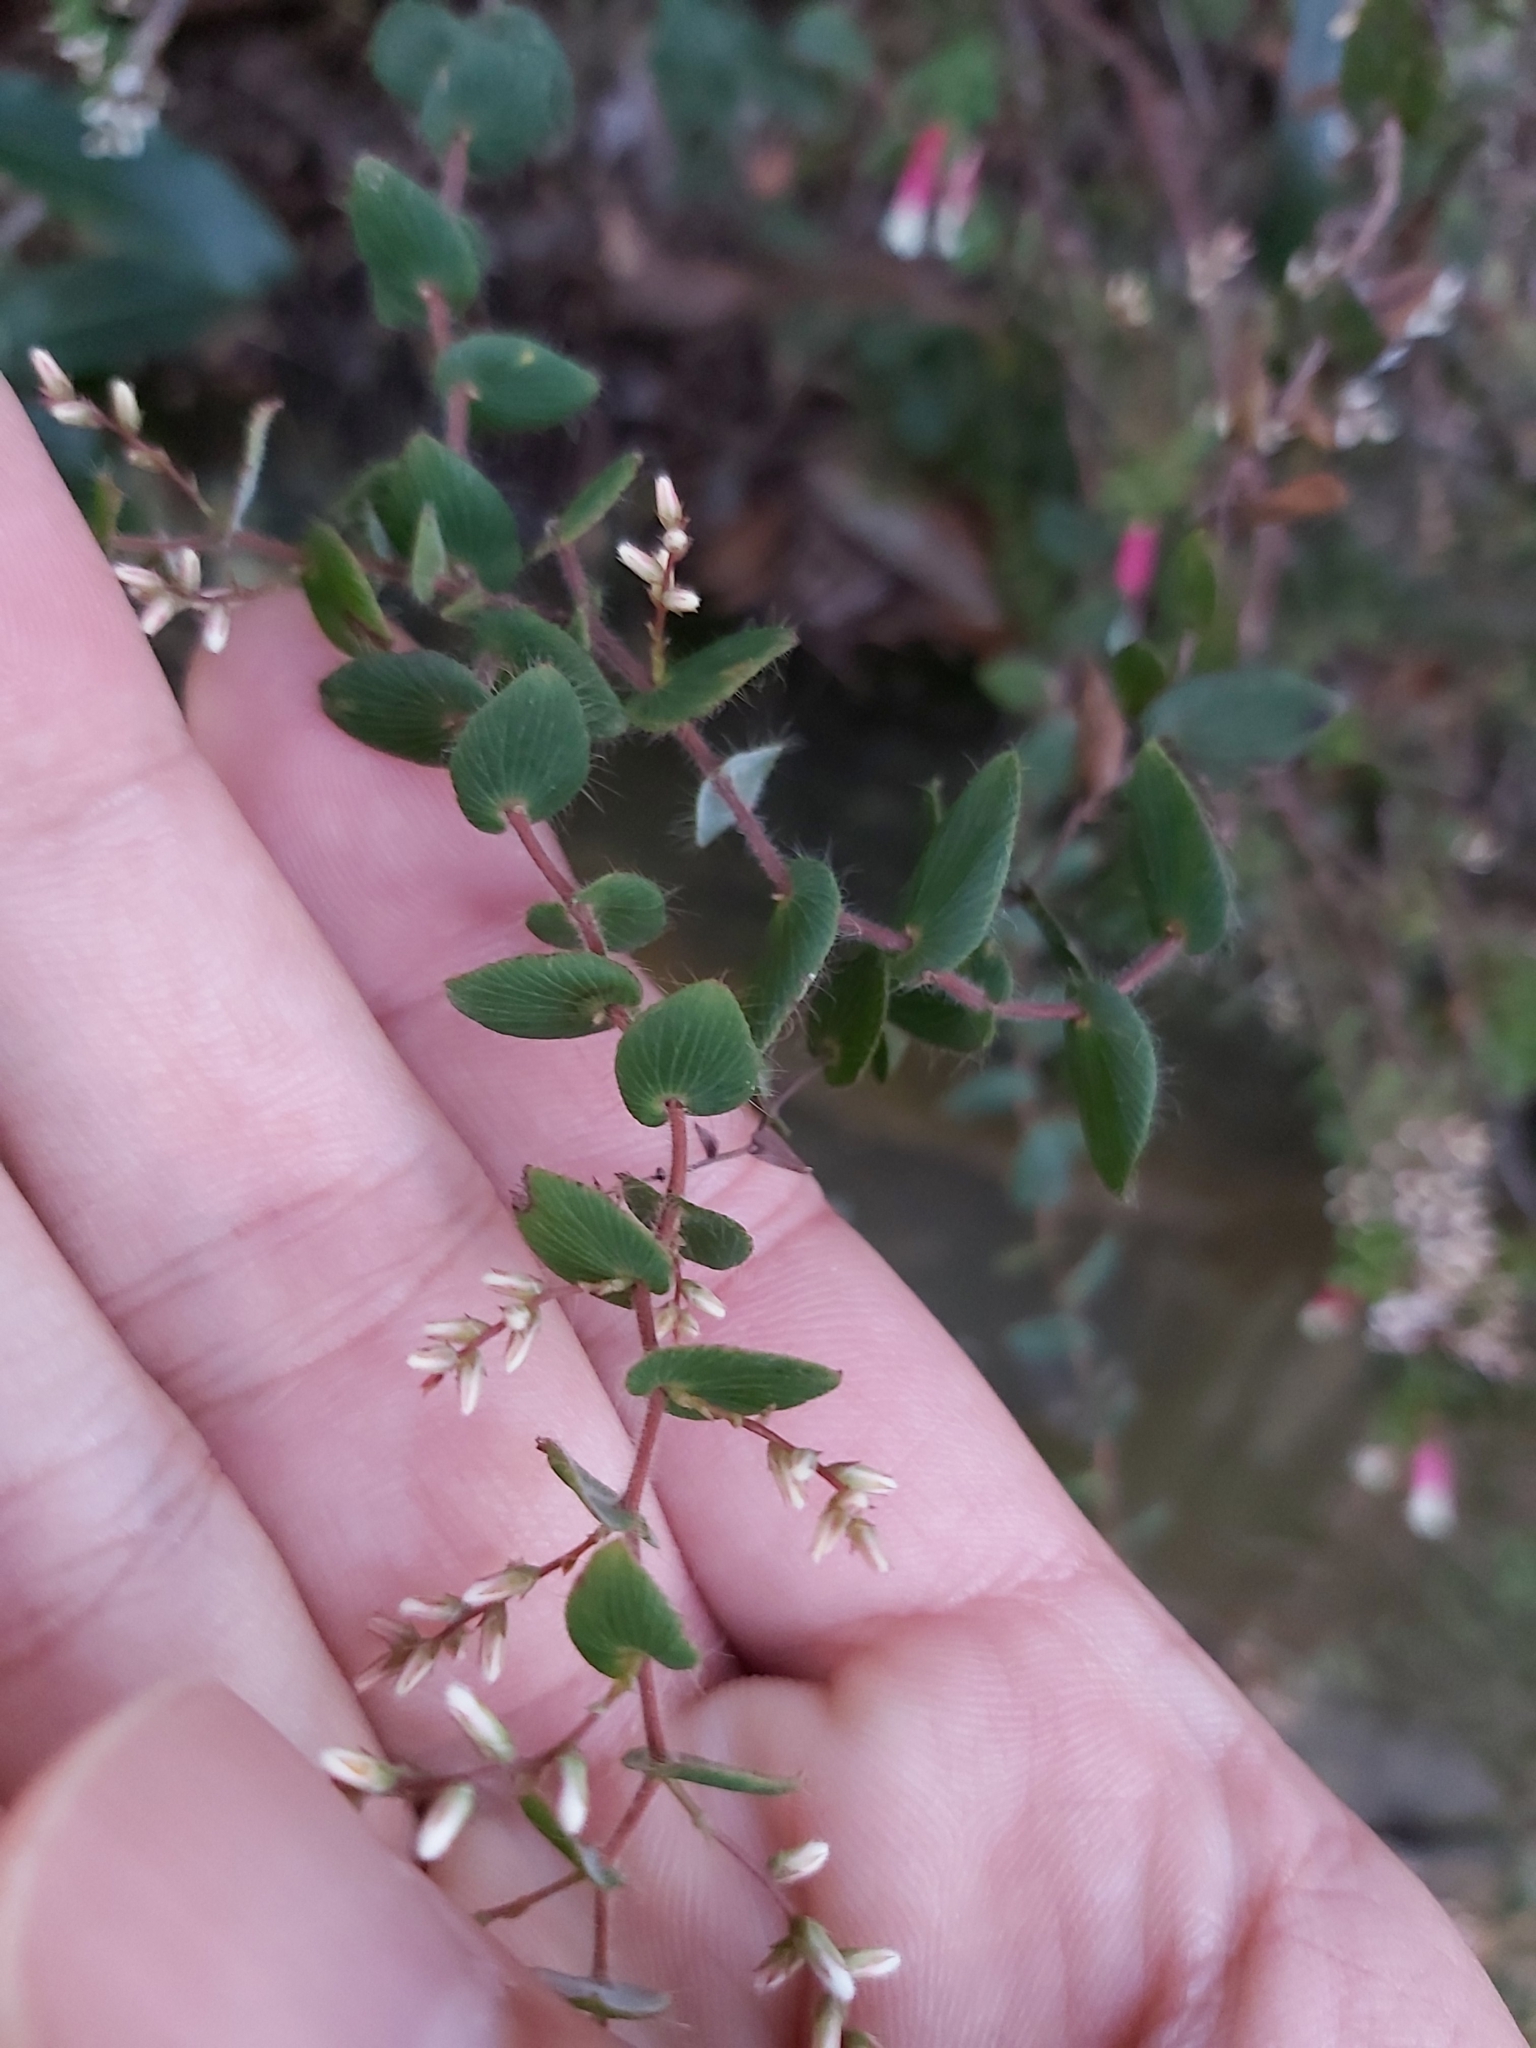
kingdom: Plantae
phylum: Tracheophyta
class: Magnoliopsida
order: Ericales
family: Ericaceae
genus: Leucopogon
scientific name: Leucopogon amplexicaulis
